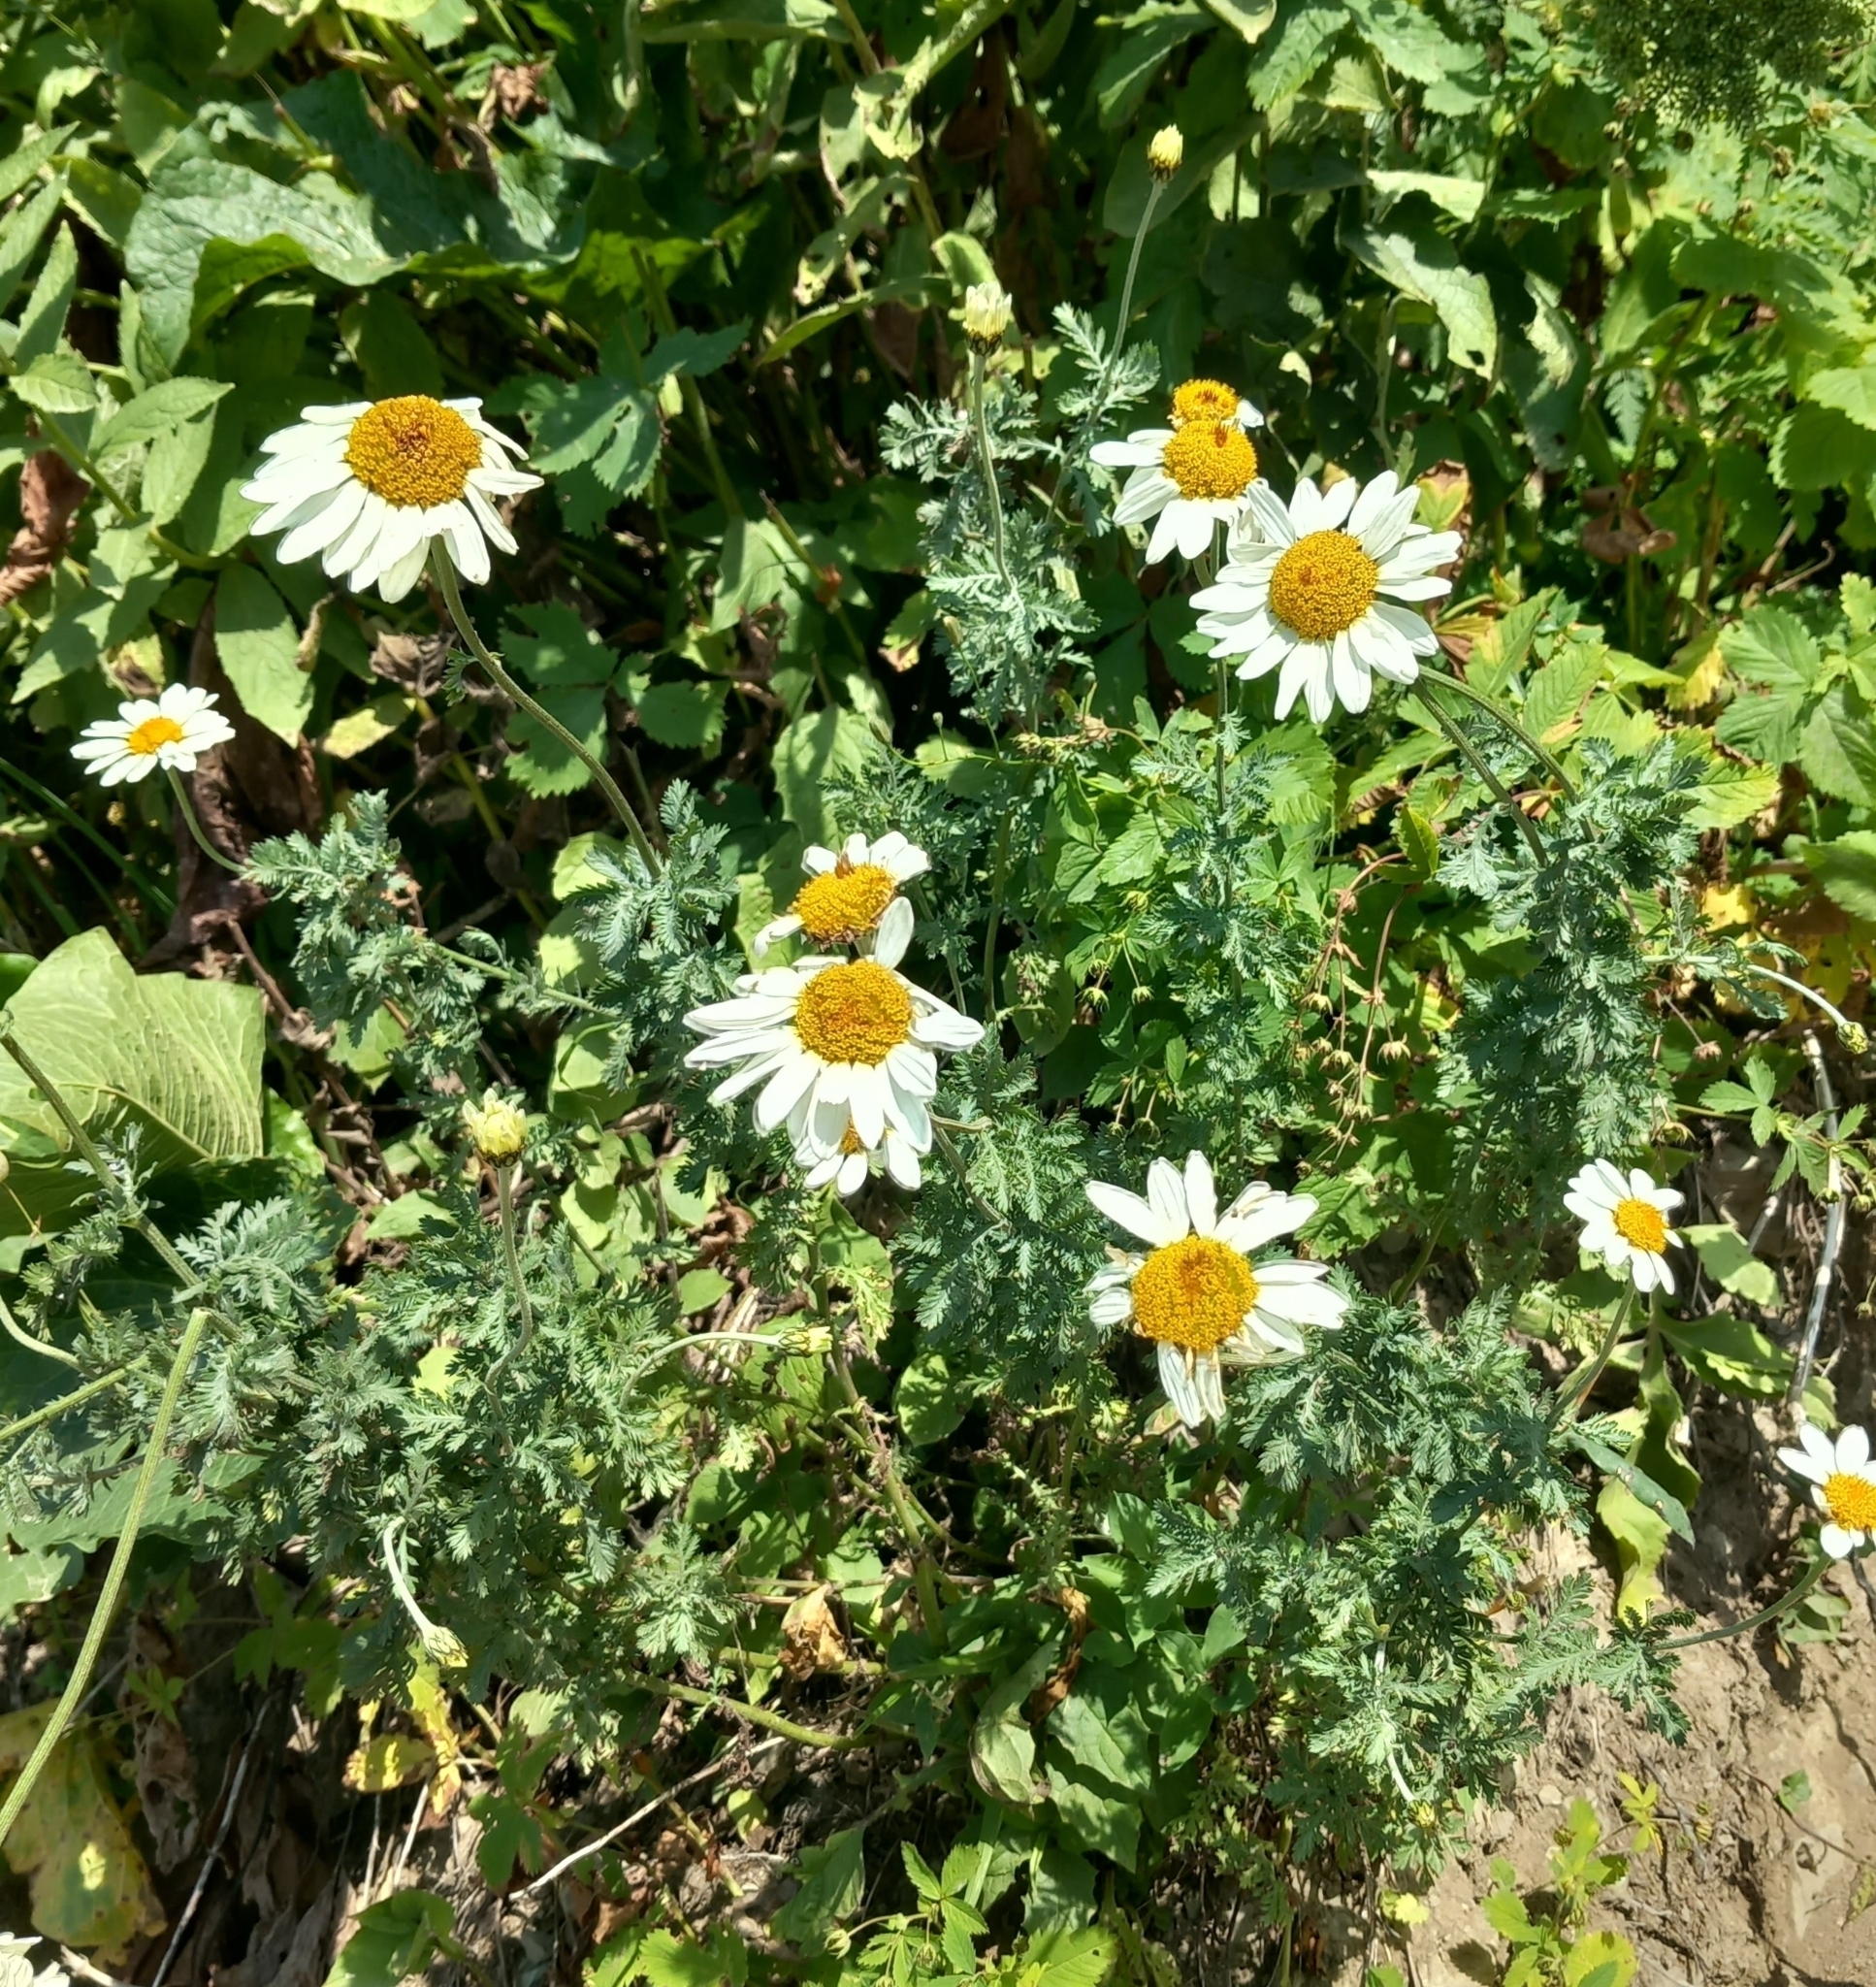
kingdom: Plantae
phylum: Tracheophyta
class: Magnoliopsida
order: Asterales
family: Asteraceae
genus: Cota
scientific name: Cota melanoloma
